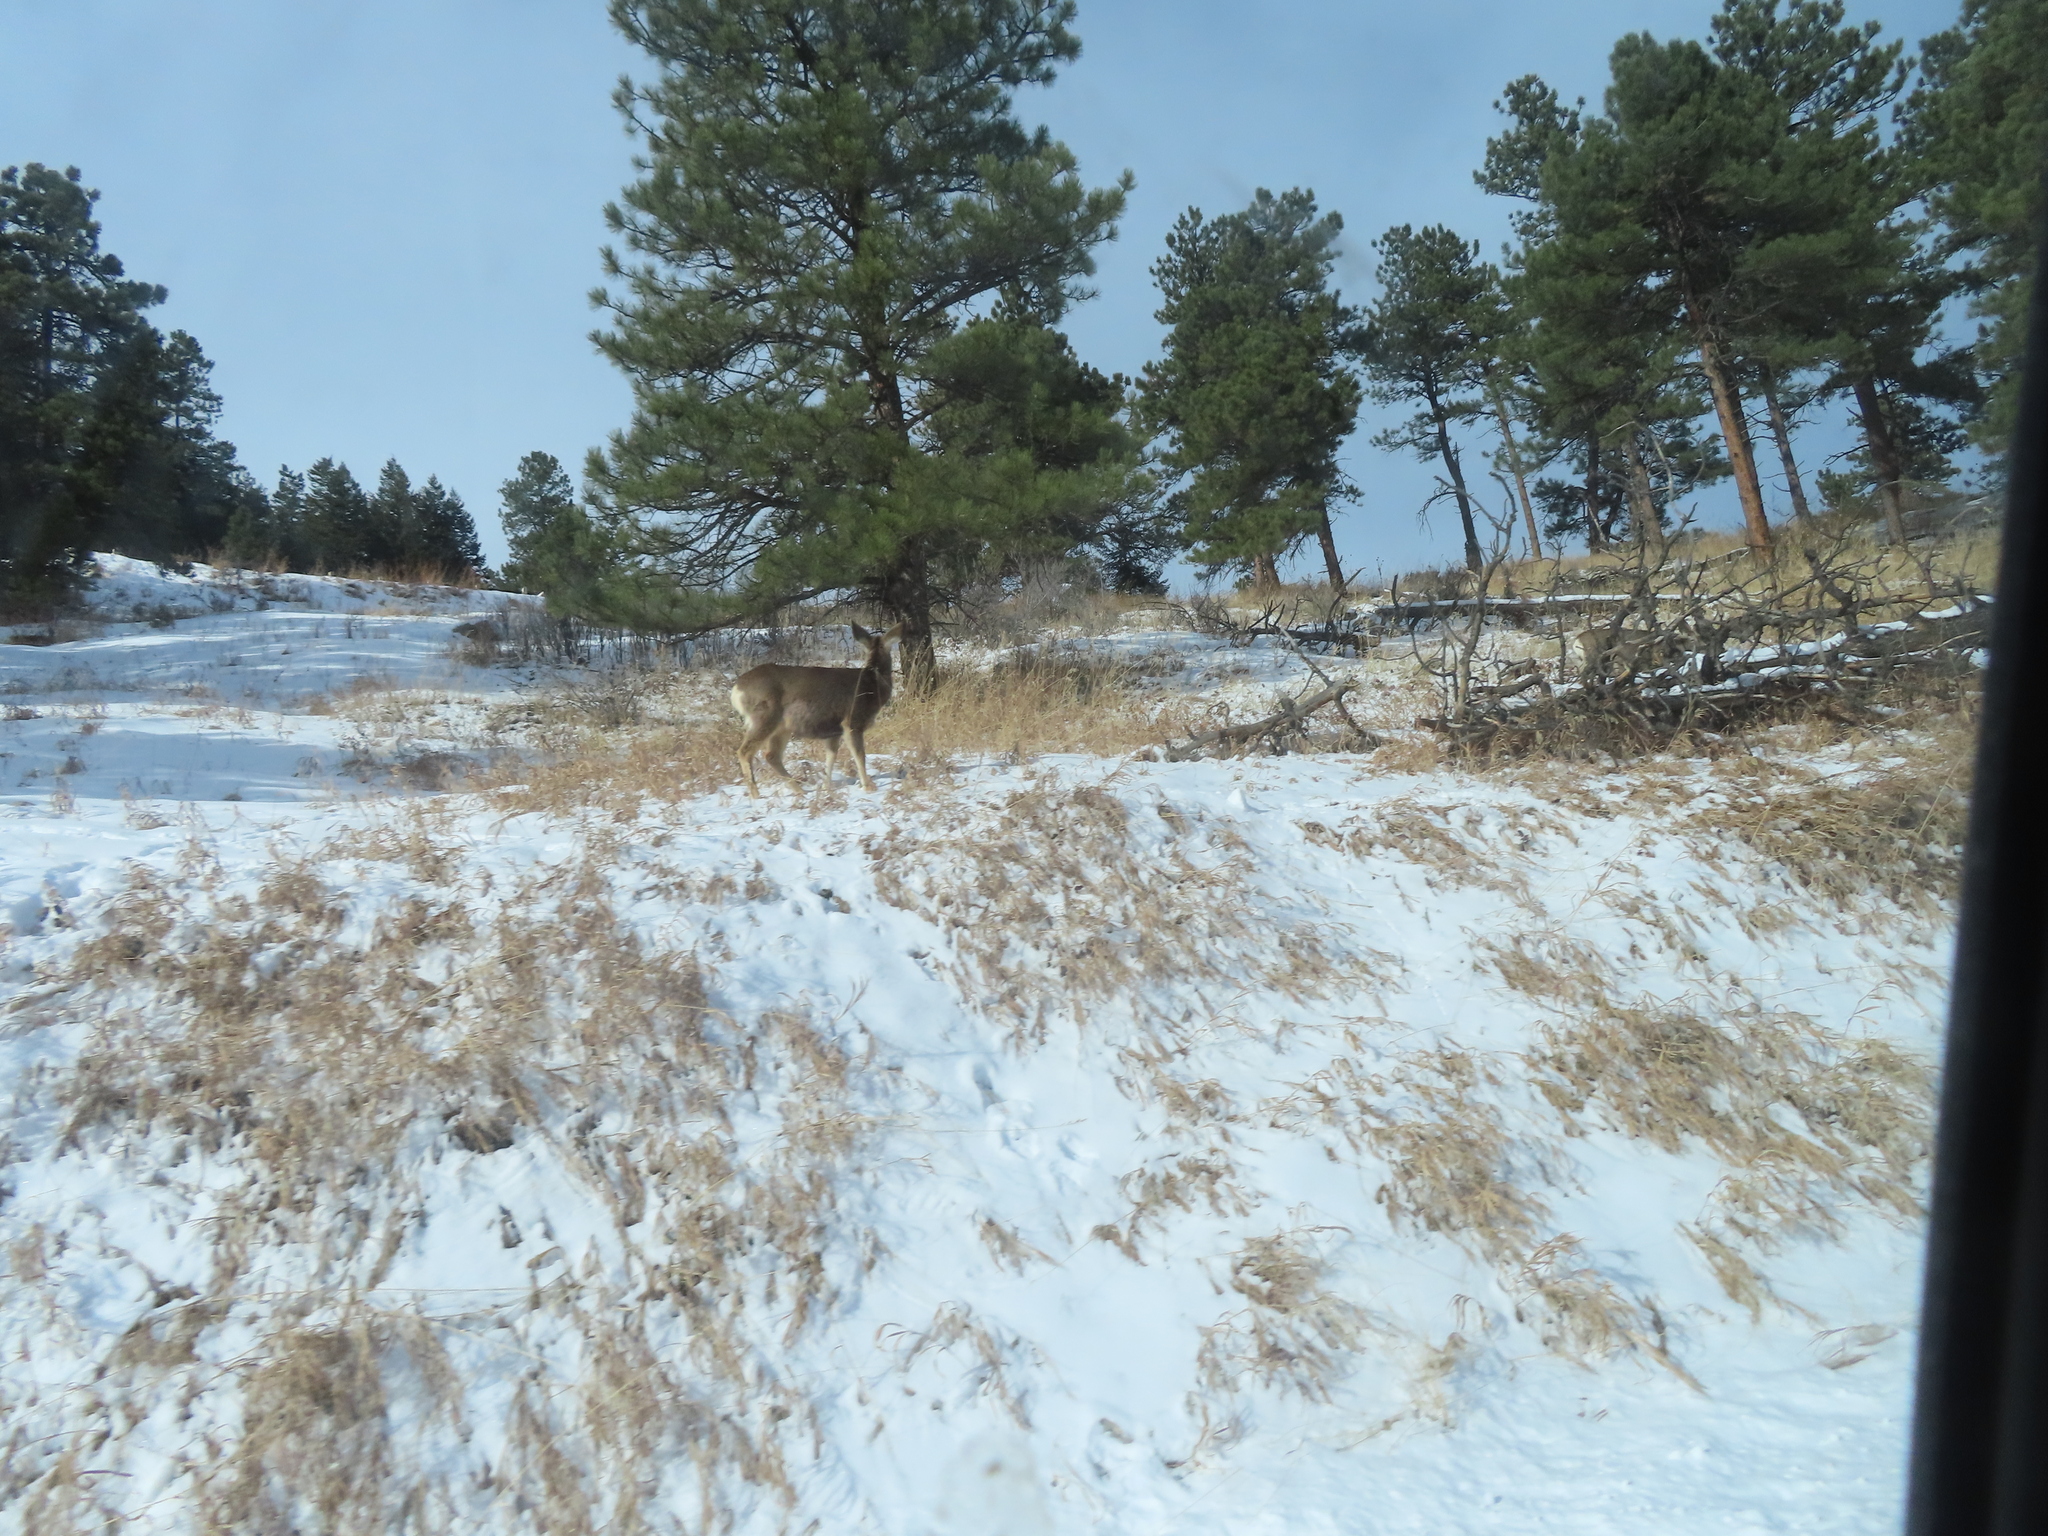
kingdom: Animalia
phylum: Chordata
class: Mammalia
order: Artiodactyla
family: Cervidae
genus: Odocoileus
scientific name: Odocoileus hemionus
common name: Mule deer
